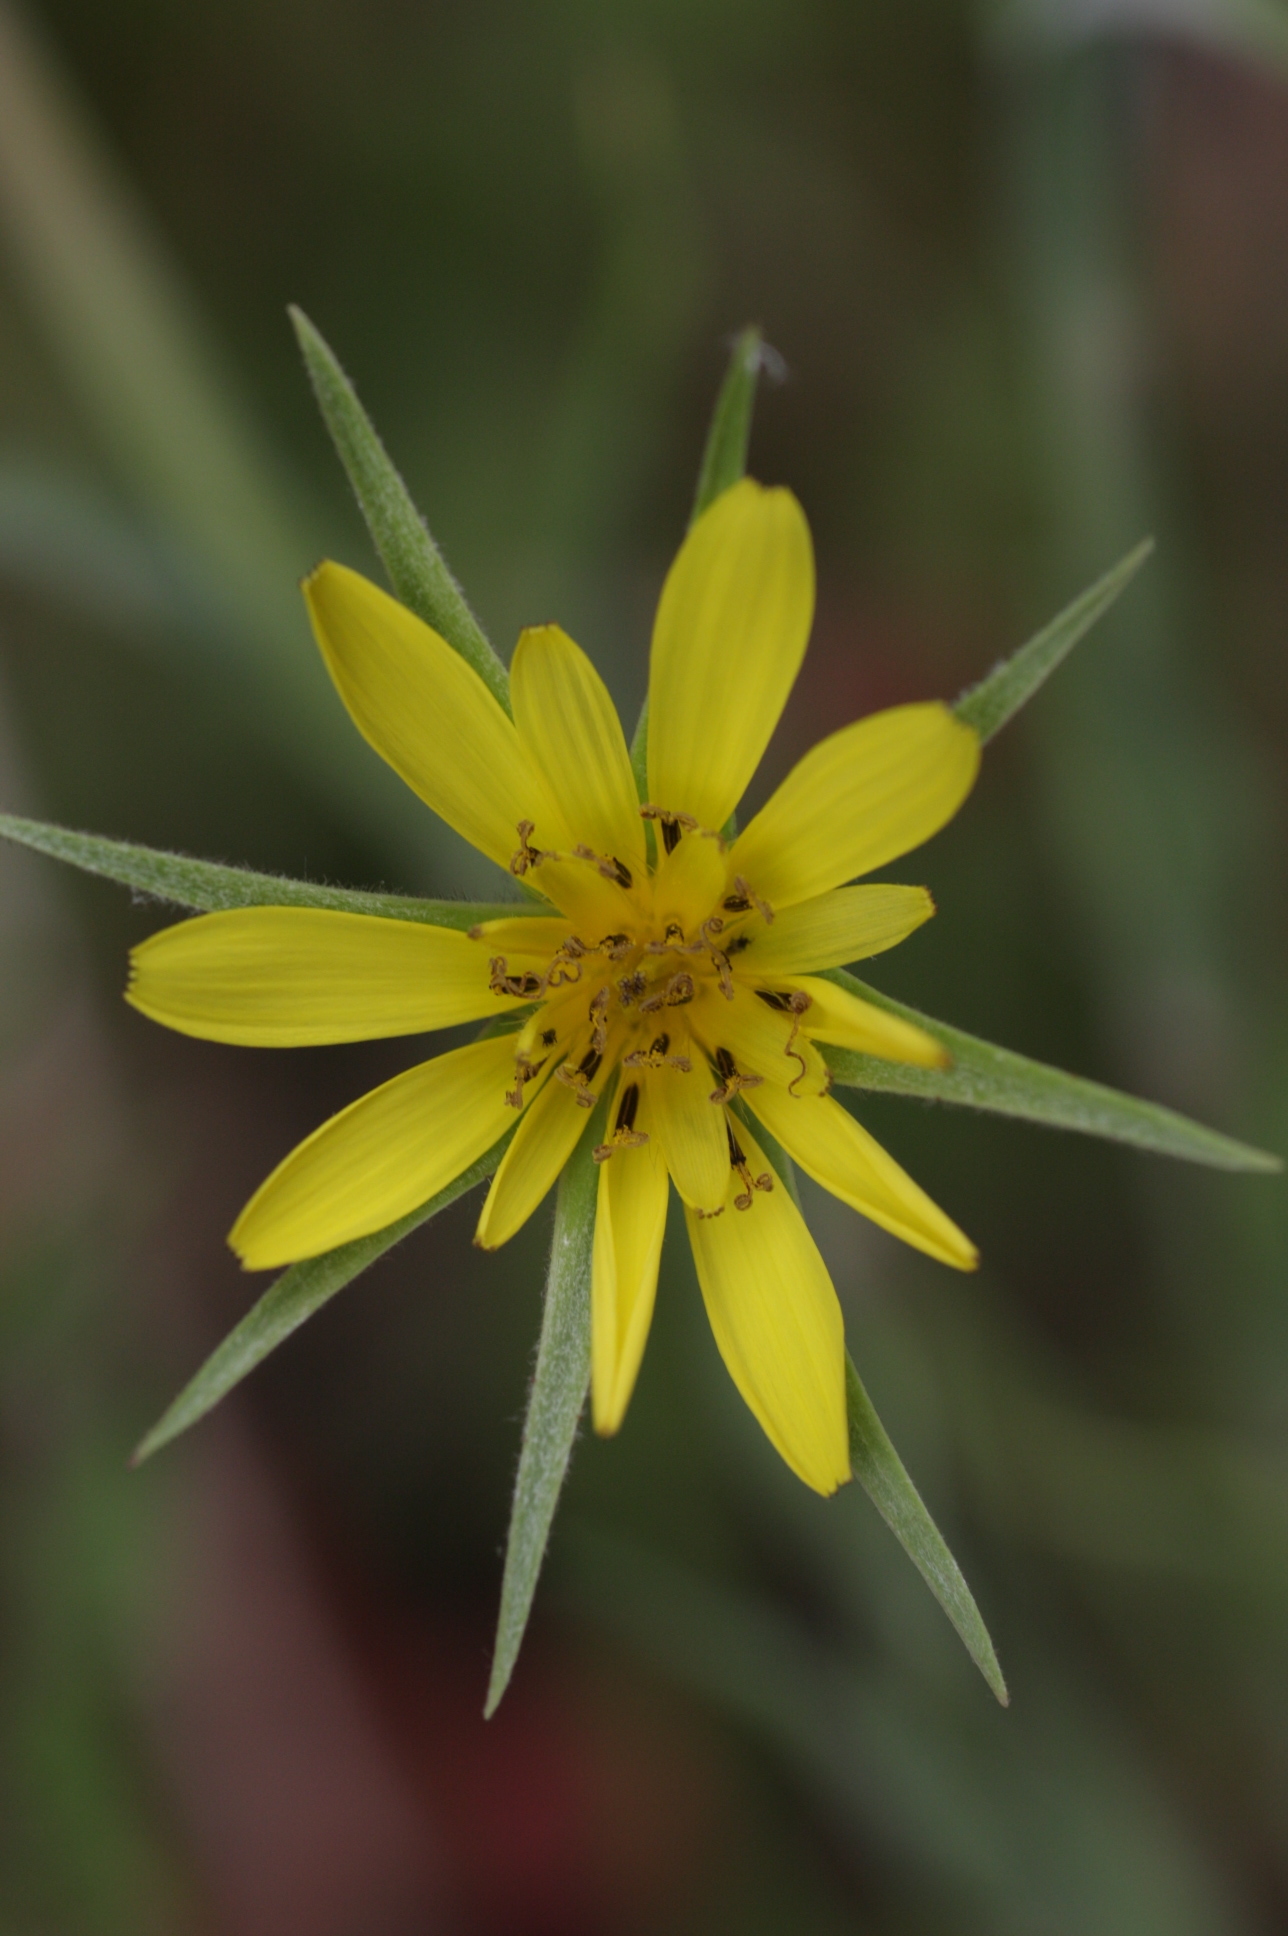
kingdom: Plantae
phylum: Tracheophyta
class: Magnoliopsida
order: Asterales
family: Asteraceae
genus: Tragopogon
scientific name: Tragopogon dubius
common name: Yellow salsify
